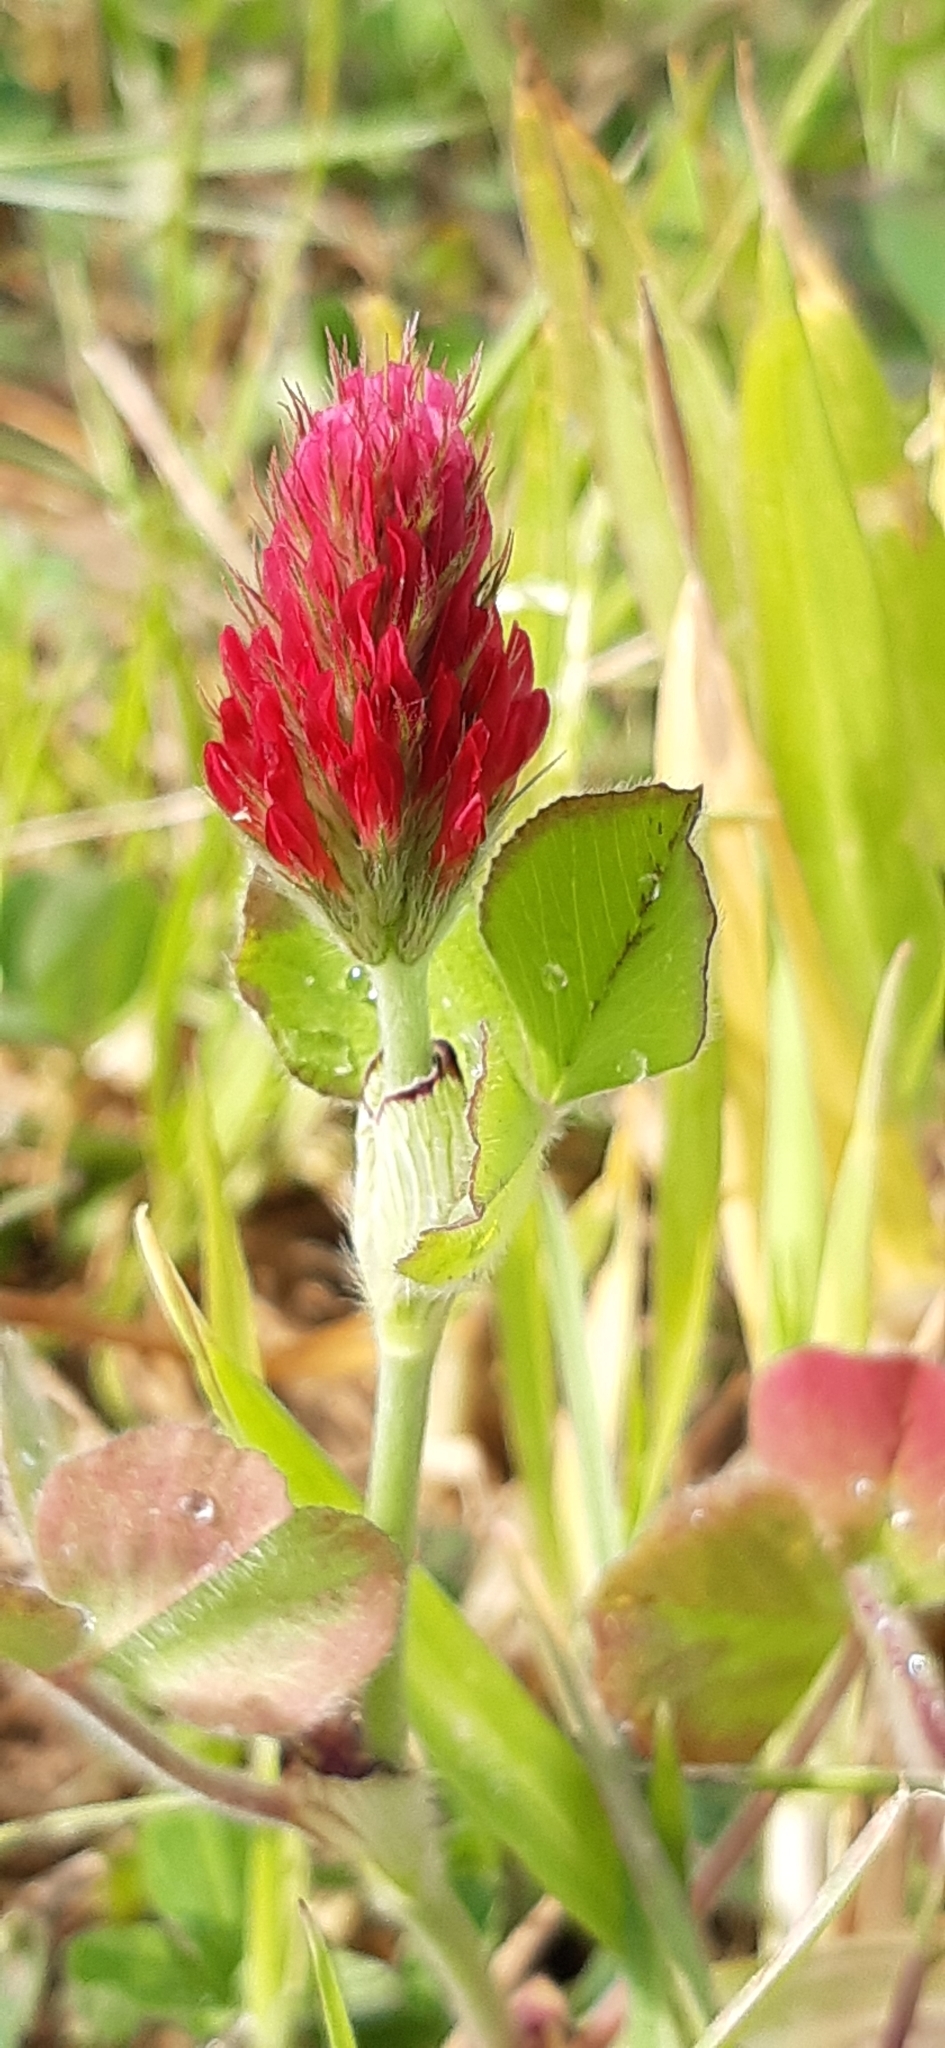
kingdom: Plantae
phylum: Tracheophyta
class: Magnoliopsida
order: Fabales
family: Fabaceae
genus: Trifolium
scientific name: Trifolium incarnatum
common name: Crimson clover
